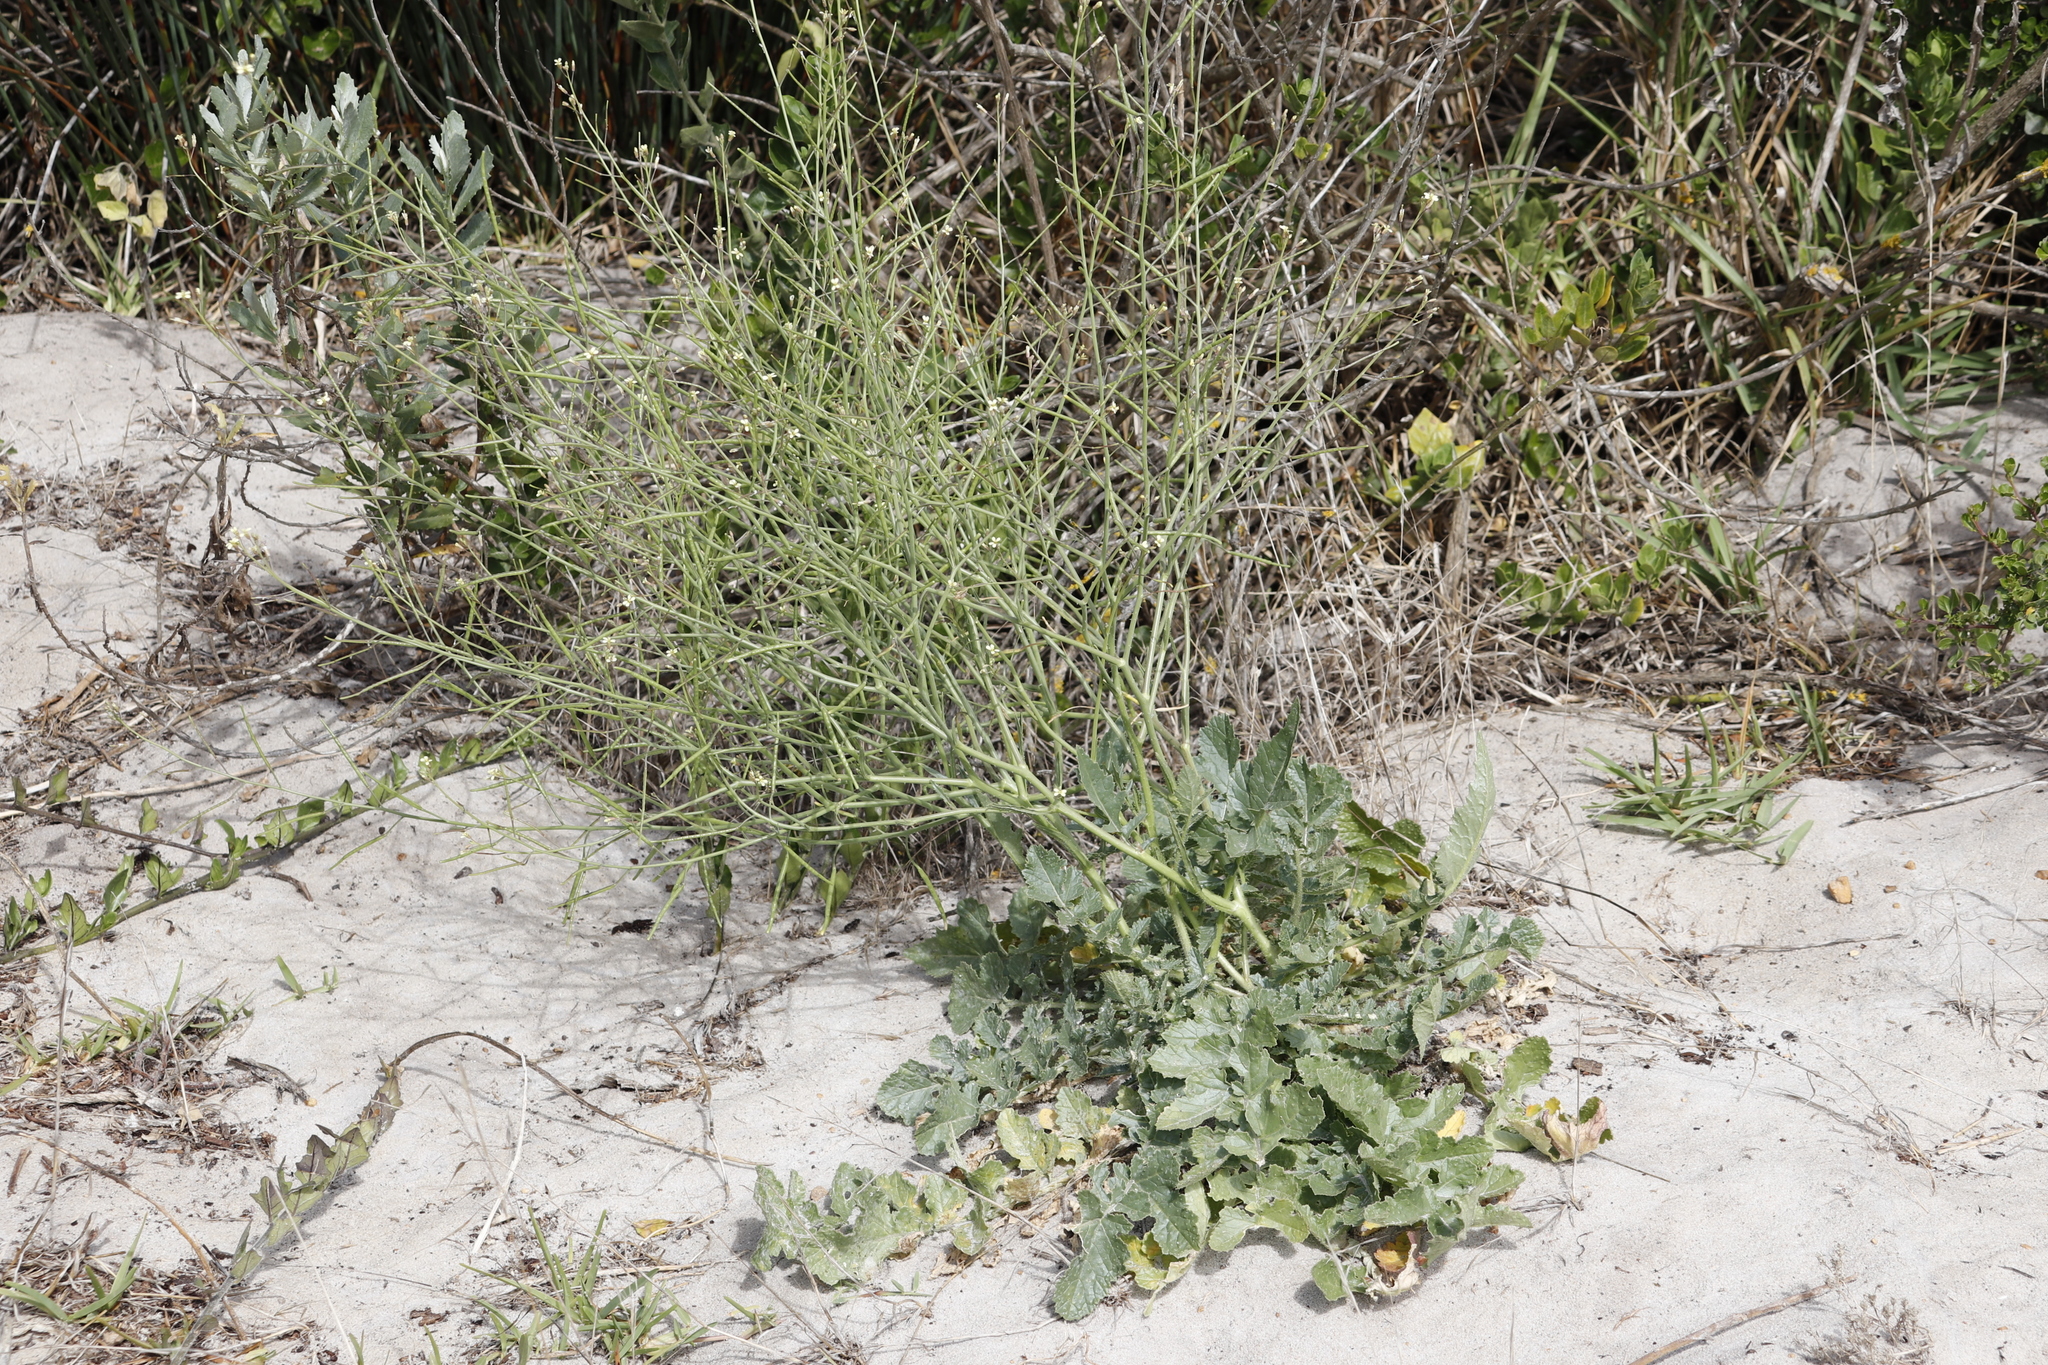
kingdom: Plantae
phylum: Tracheophyta
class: Magnoliopsida
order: Brassicales
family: Brassicaceae
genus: Brassica
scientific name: Brassica tournefortii
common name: Pale cabbage
